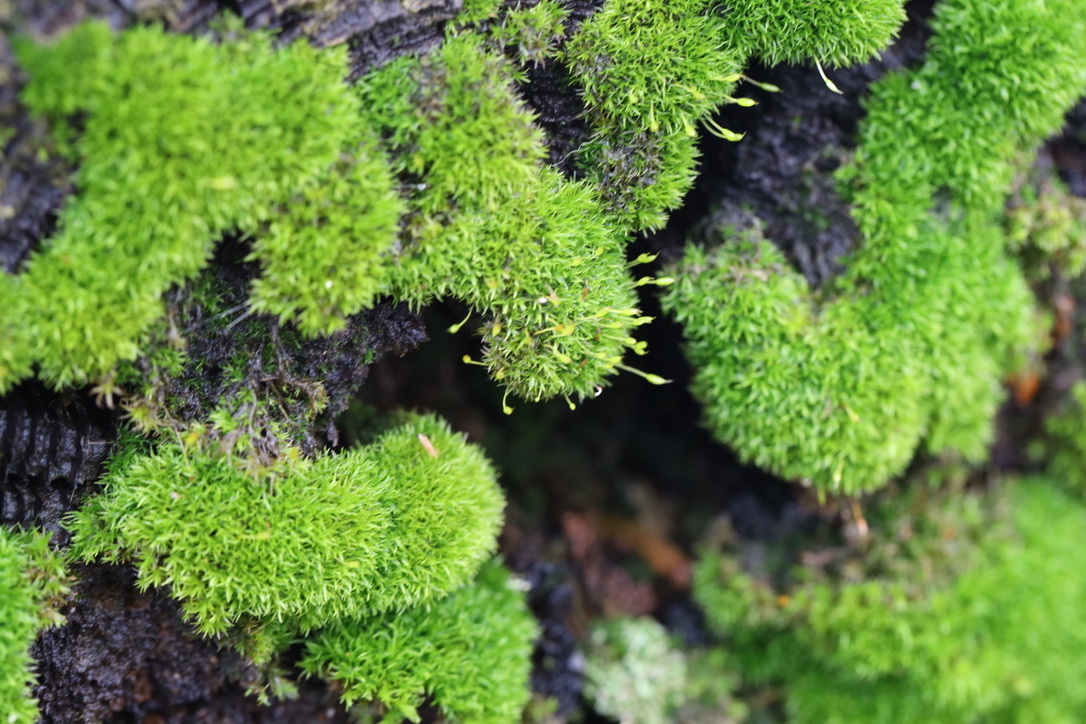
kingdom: Plantae
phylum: Bryophyta
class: Bryopsida
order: Dicranales
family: Rhabdoweisiaceae
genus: Dicranoweisia
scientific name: Dicranoweisia cirrata
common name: Common pincushion
